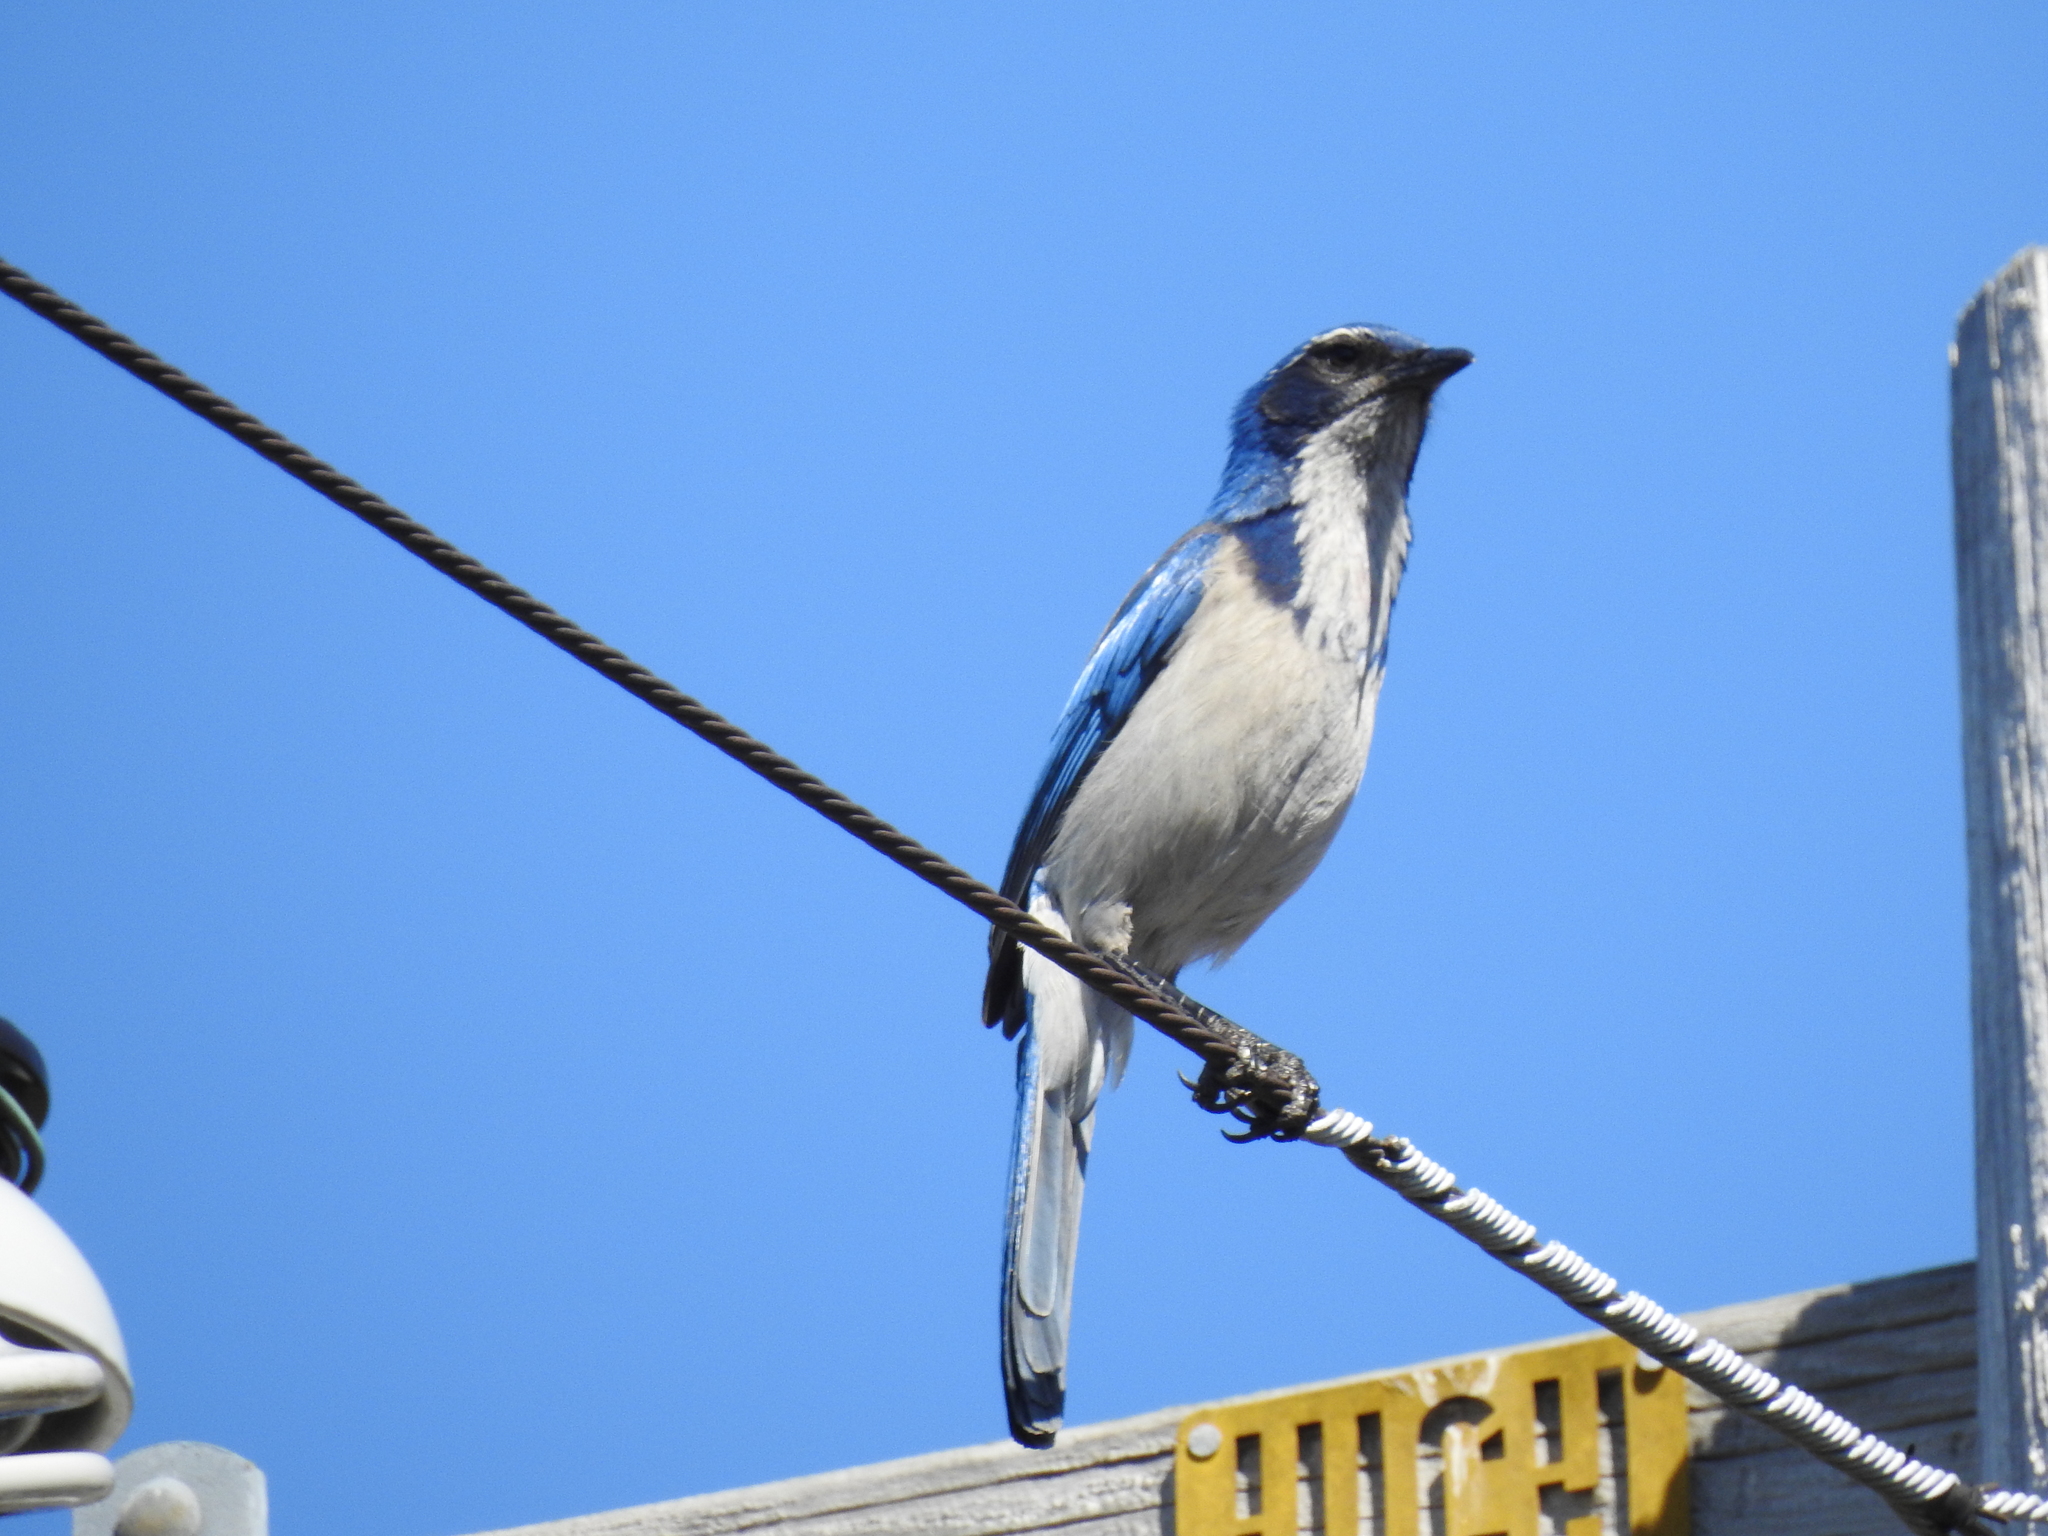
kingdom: Animalia
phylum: Chordata
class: Aves
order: Passeriformes
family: Corvidae
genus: Aphelocoma
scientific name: Aphelocoma californica
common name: California scrub-jay
